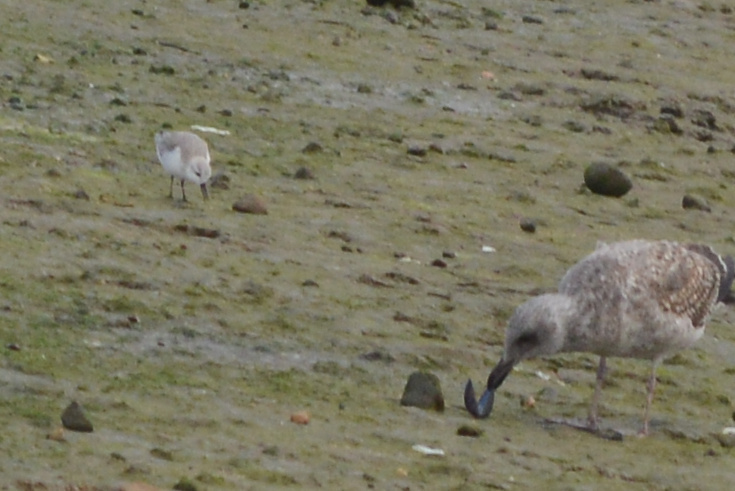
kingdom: Animalia
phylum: Chordata
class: Aves
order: Charadriiformes
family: Scolopacidae
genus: Calidris
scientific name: Calidris alba
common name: Sanderling
